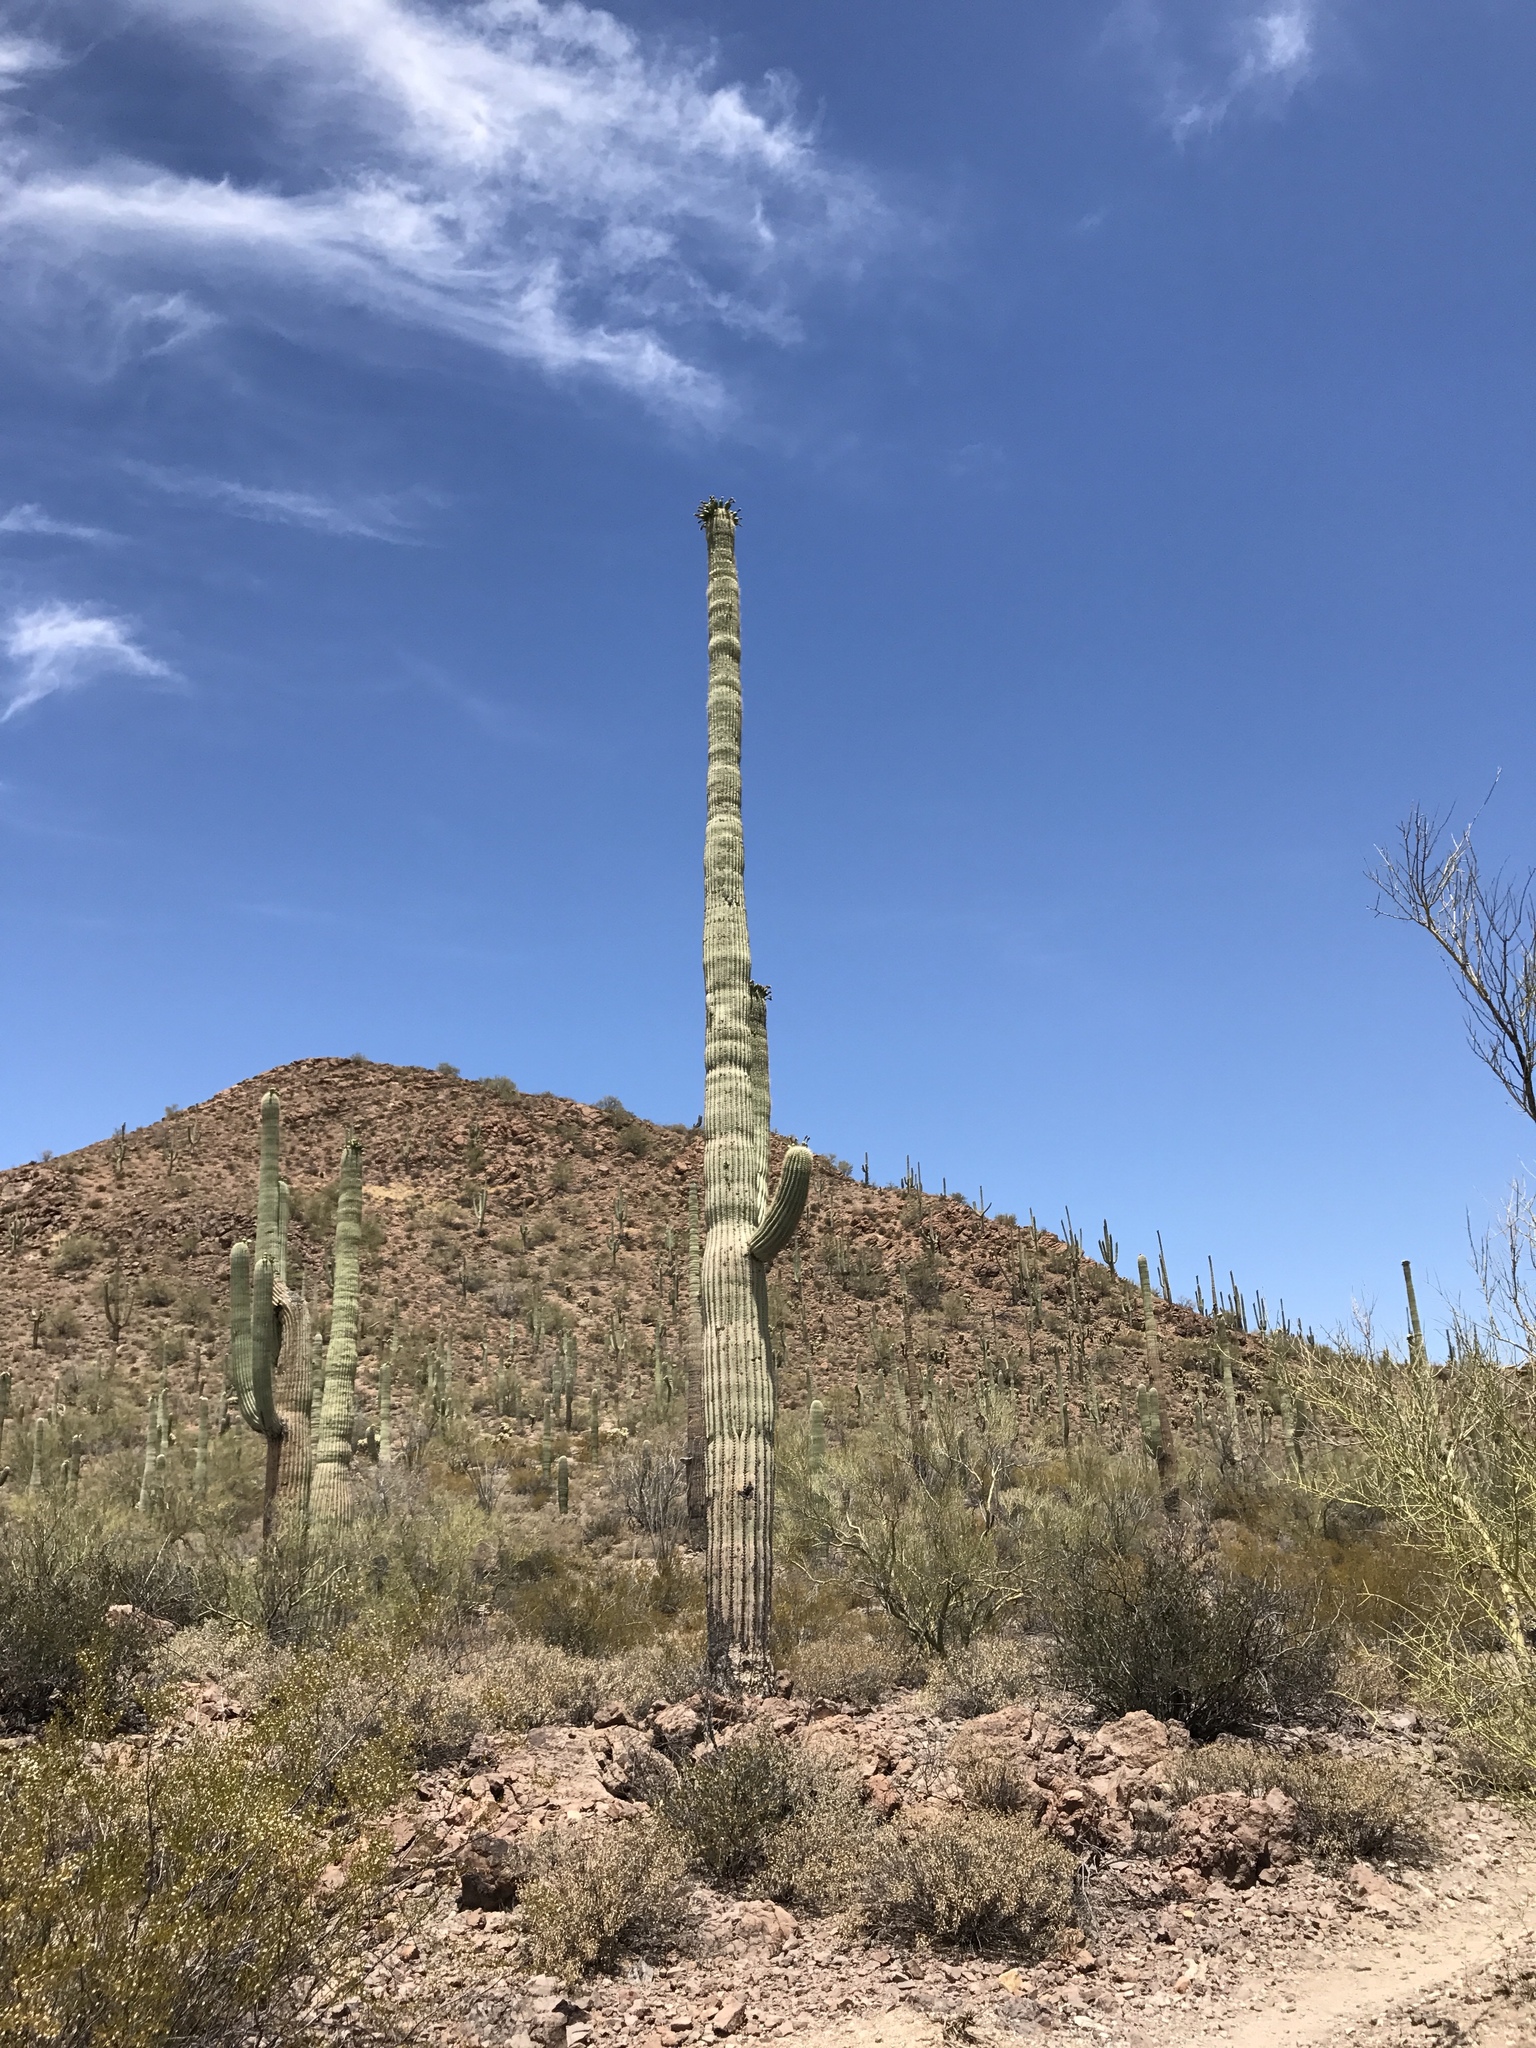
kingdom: Plantae
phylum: Tracheophyta
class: Magnoliopsida
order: Caryophyllales
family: Cactaceae
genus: Carnegiea
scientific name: Carnegiea gigantea
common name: Saguaro
